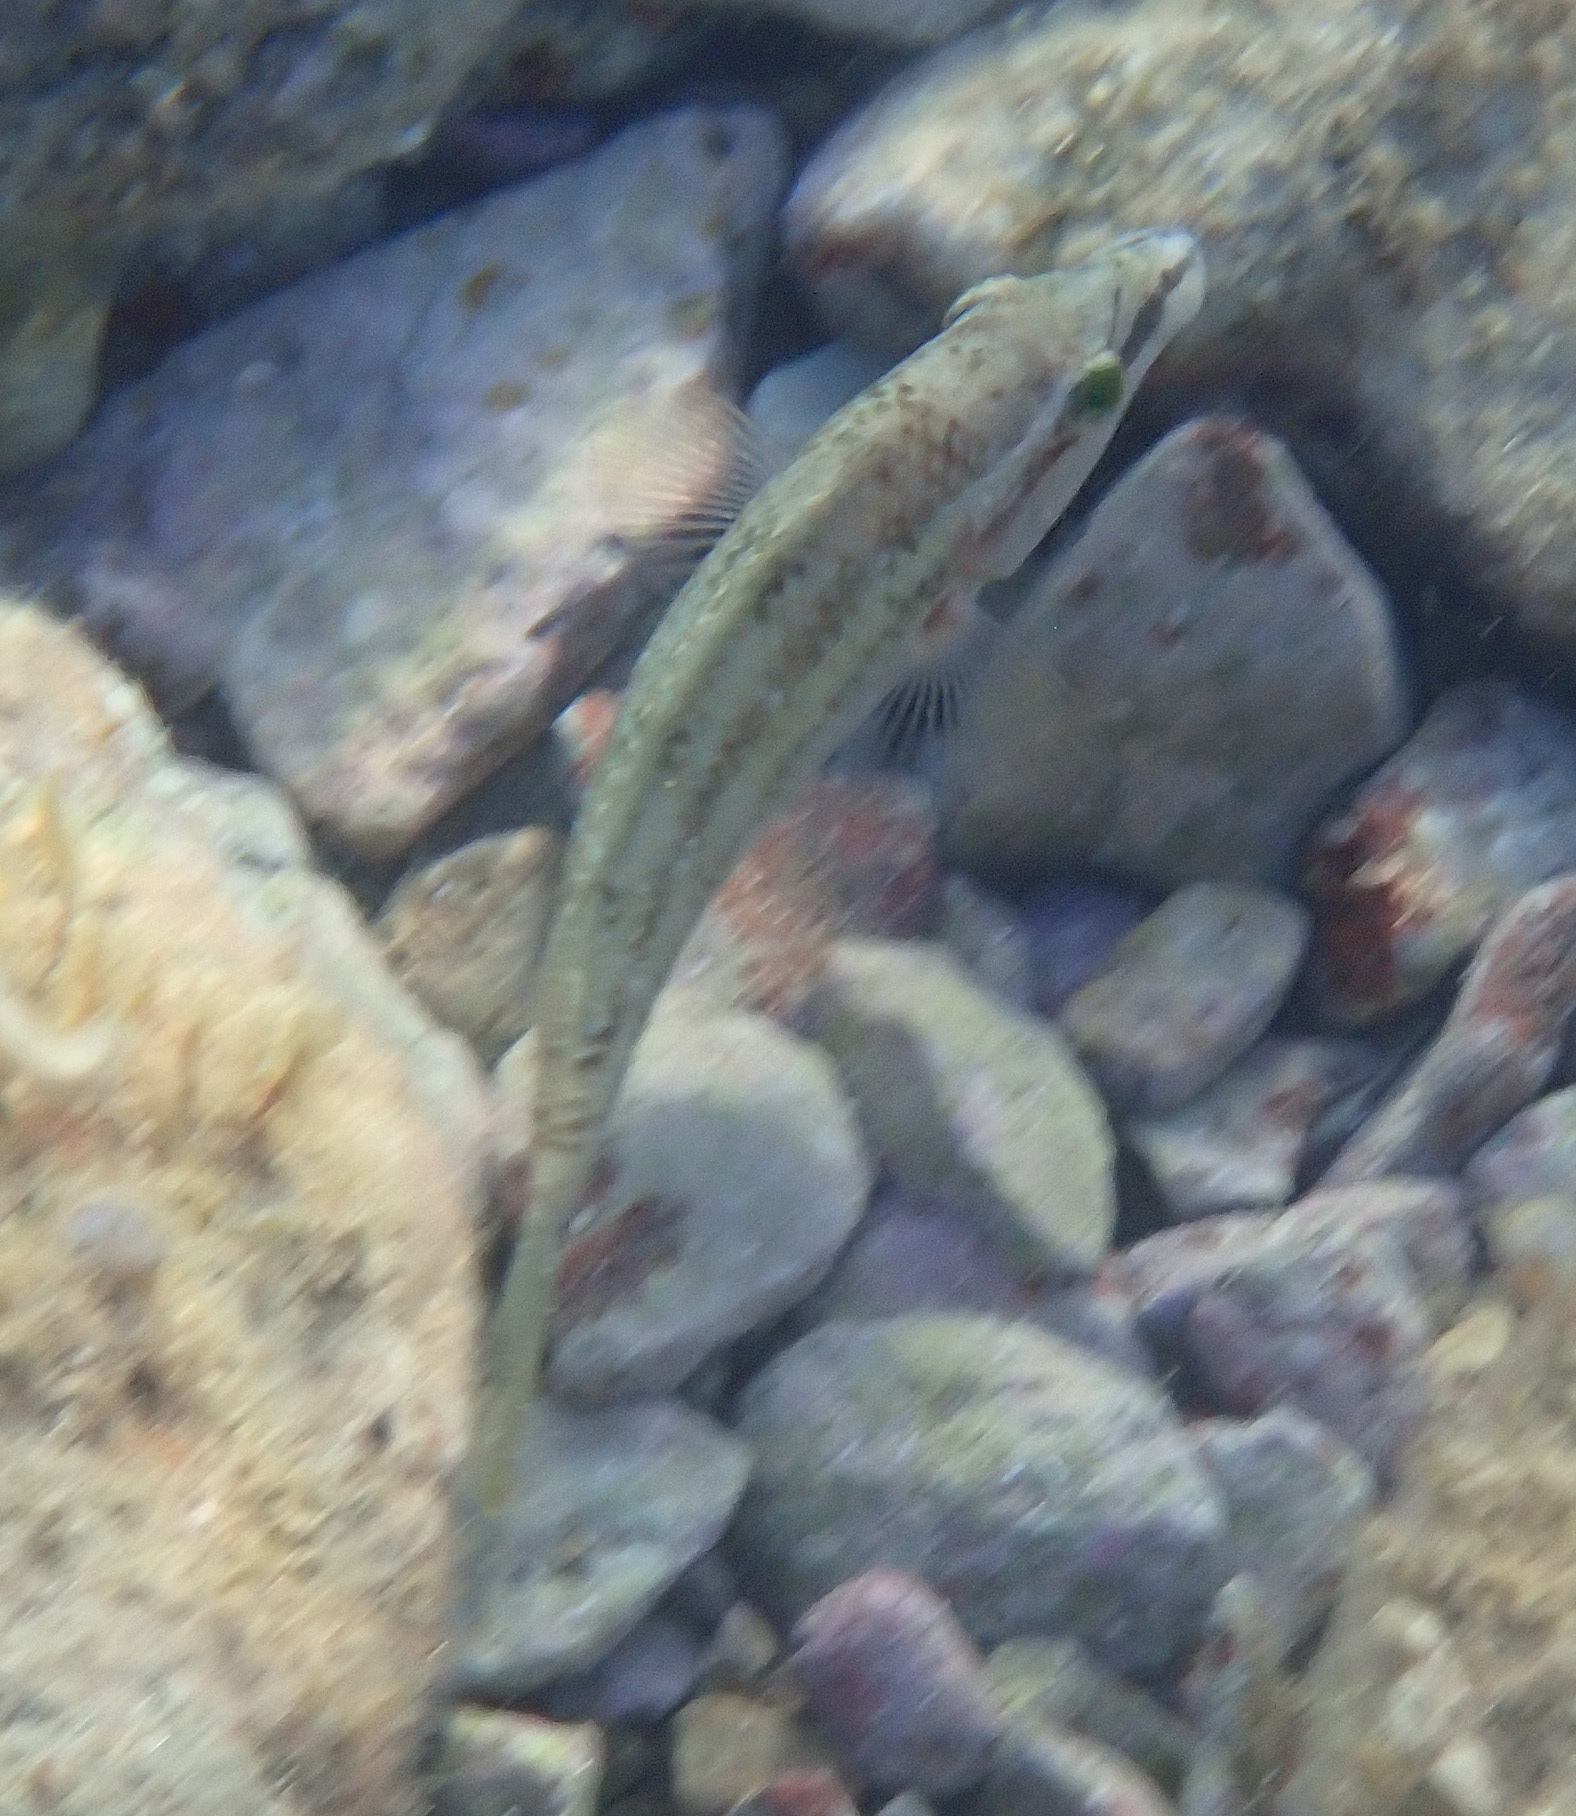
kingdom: Animalia
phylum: Chordata
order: Perciformes
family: Labridae
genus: Symphodus
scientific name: Symphodus tinca
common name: Peacock wrasse
